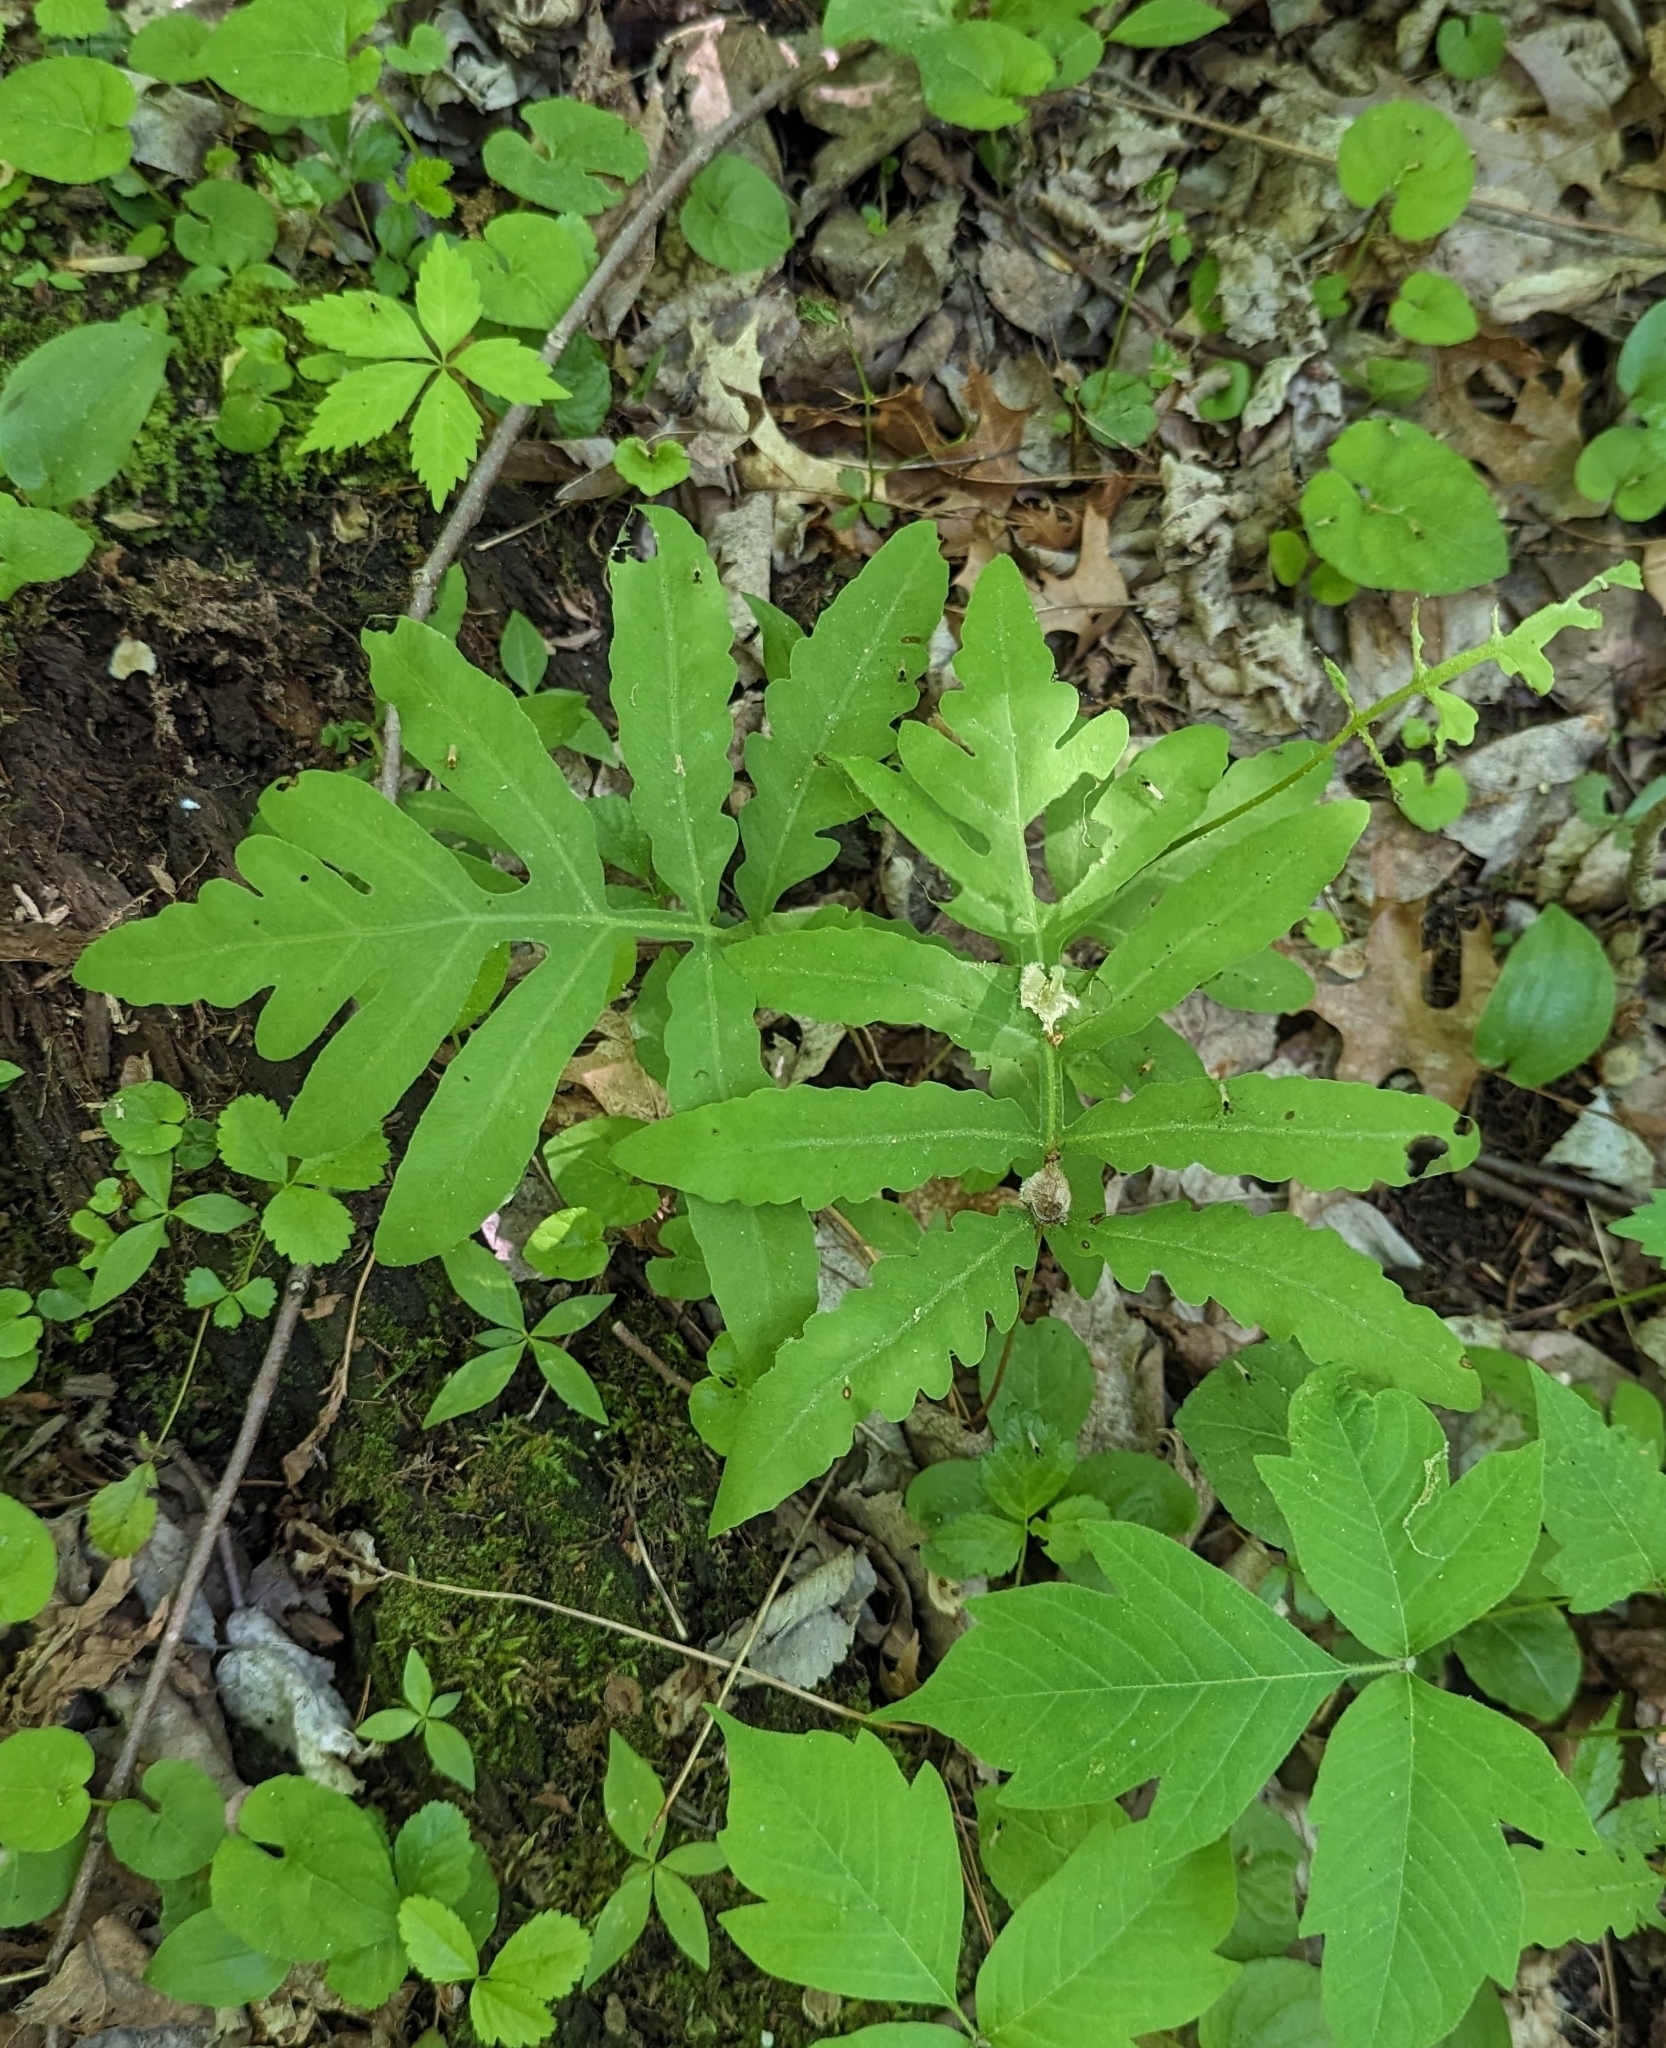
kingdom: Plantae
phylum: Tracheophyta
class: Polypodiopsida
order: Polypodiales
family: Onocleaceae
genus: Onoclea
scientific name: Onoclea sensibilis
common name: Sensitive fern
